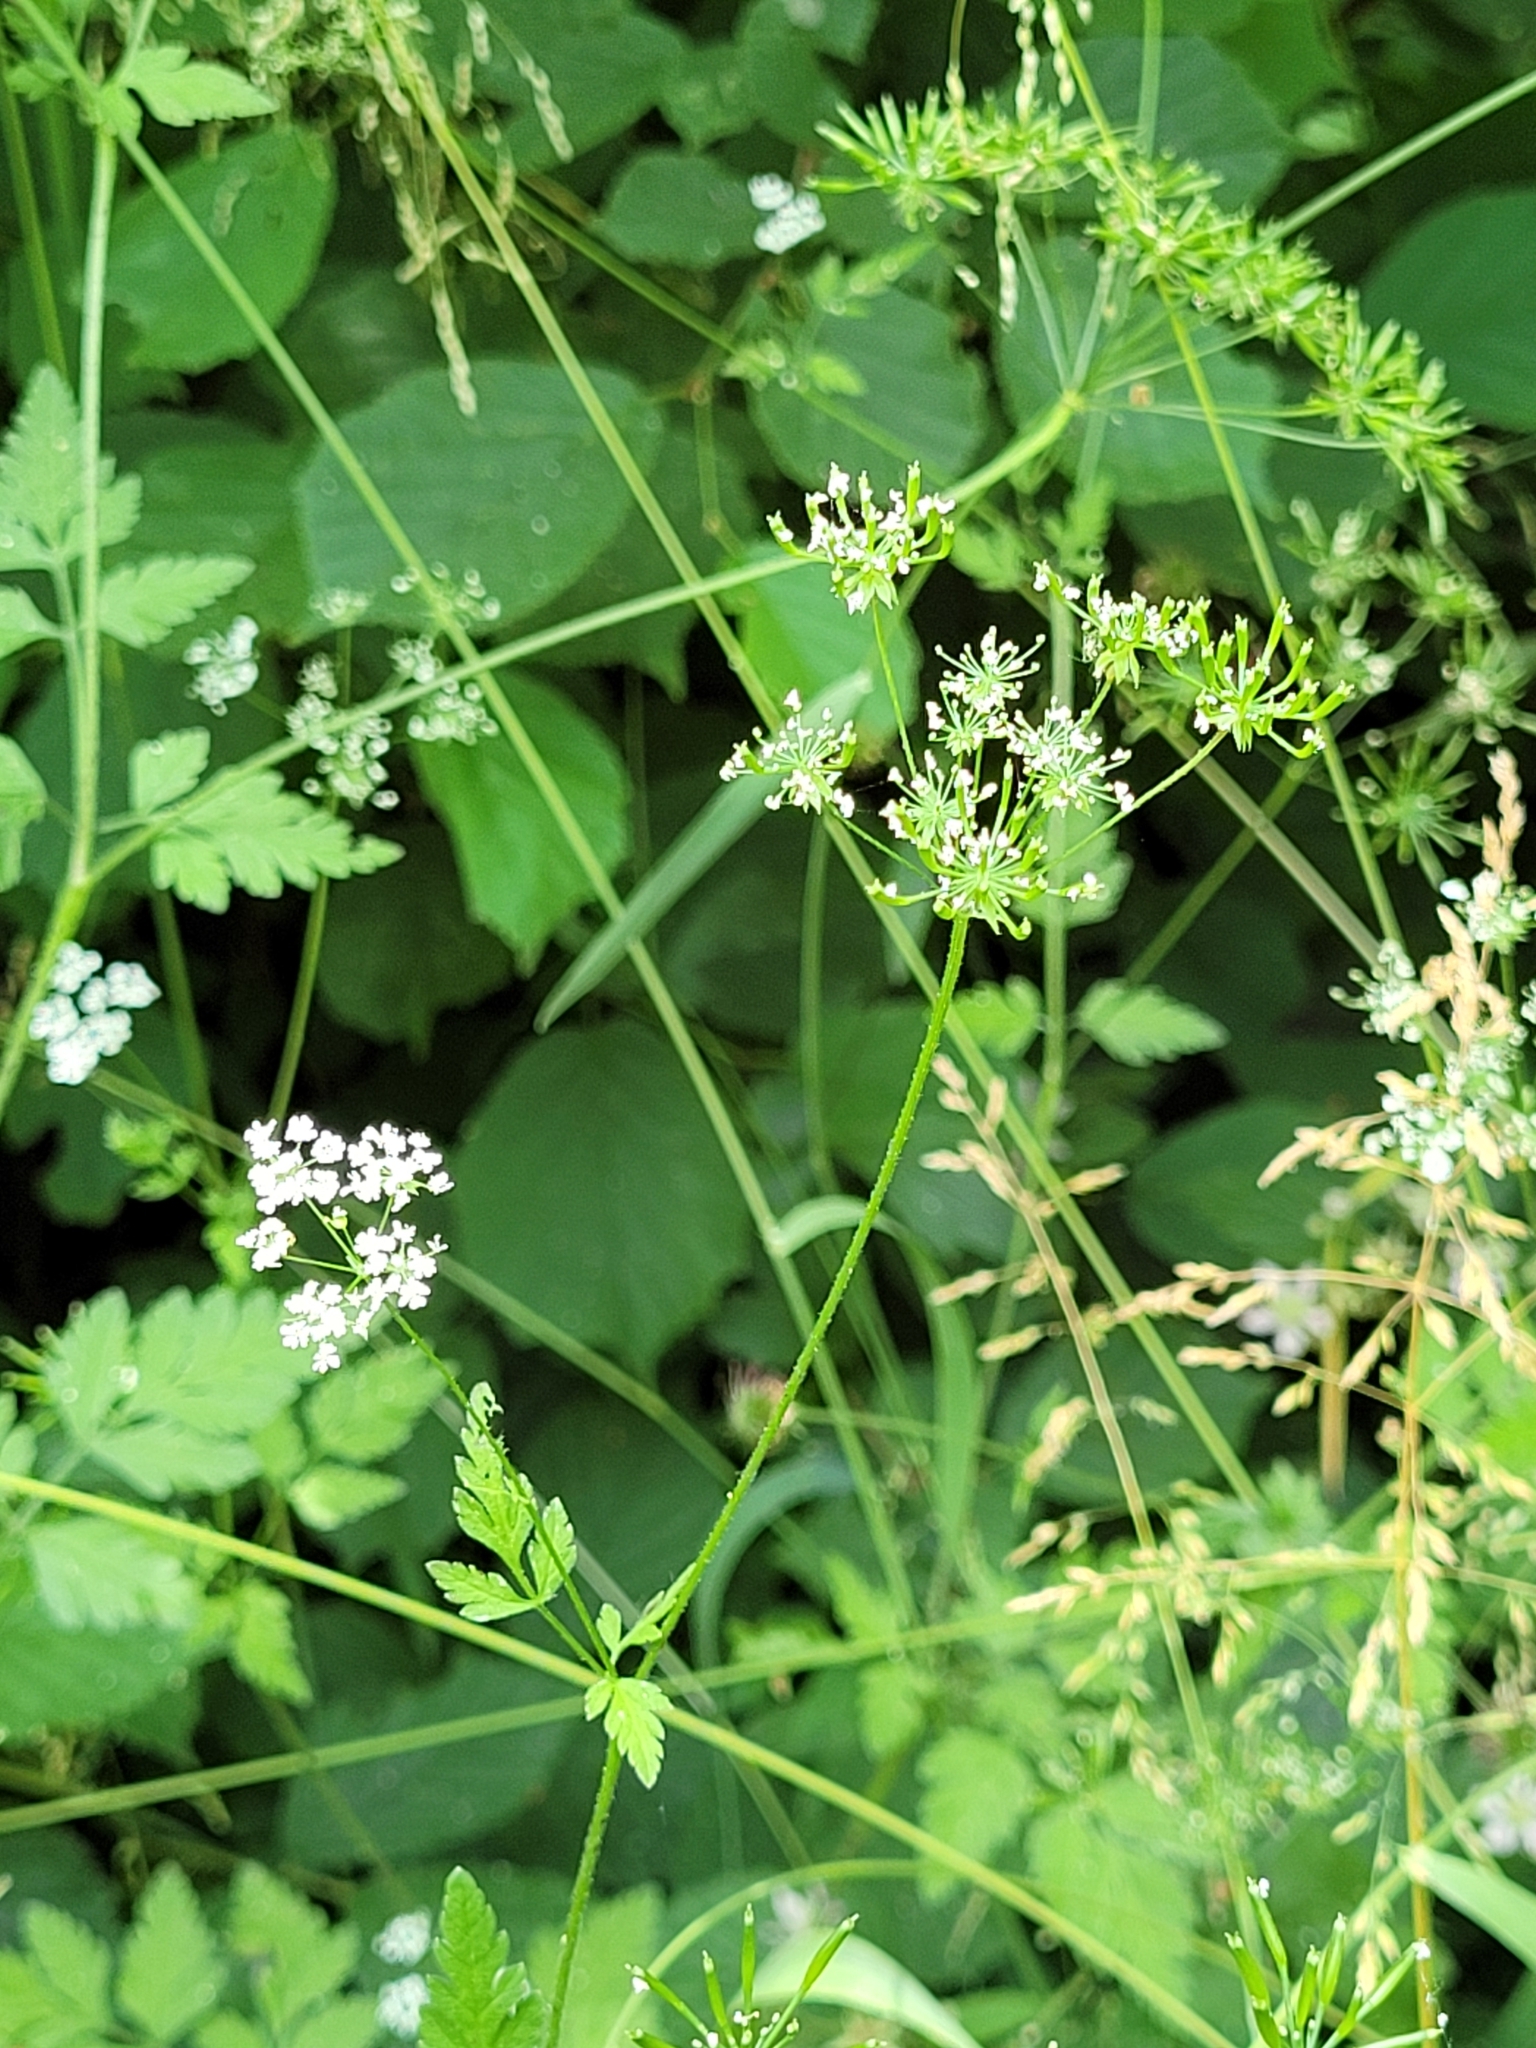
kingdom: Plantae
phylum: Tracheophyta
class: Magnoliopsida
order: Apiales
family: Apiaceae
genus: Chaerophyllum
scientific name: Chaerophyllum temulum
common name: Rough chervil
